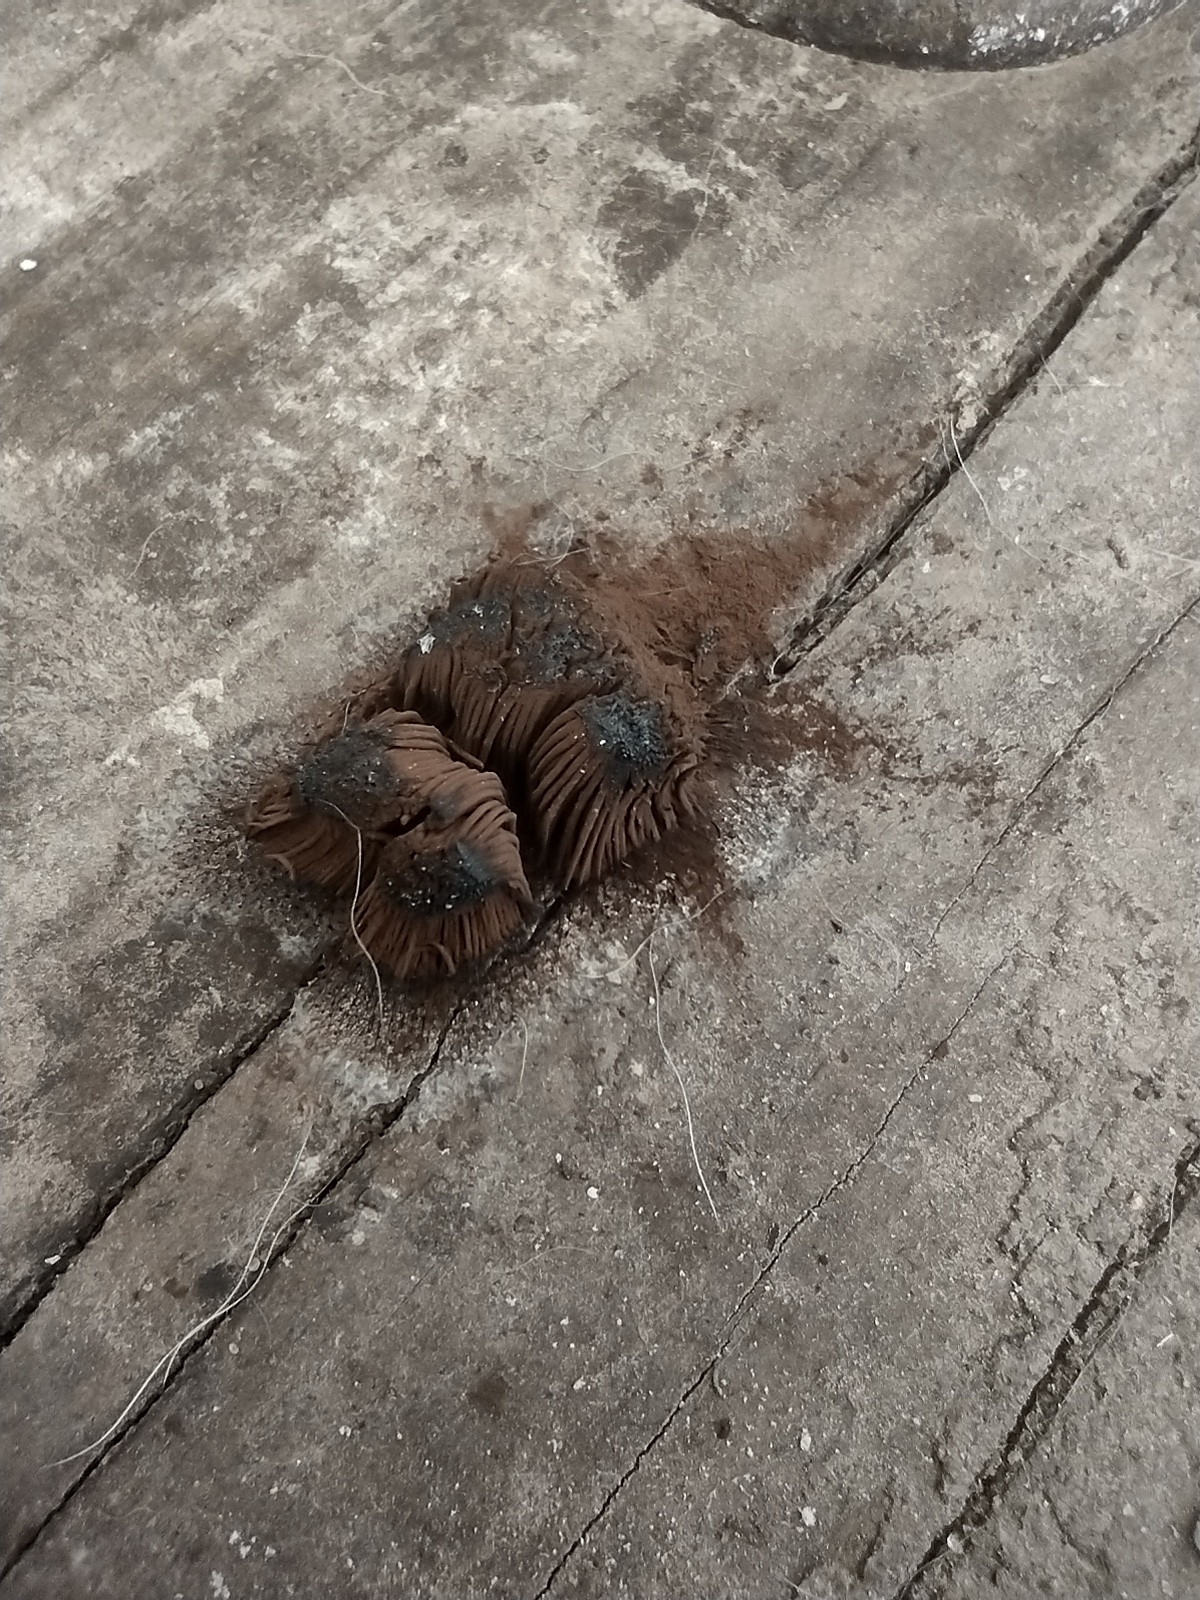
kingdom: Protozoa
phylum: Mycetozoa
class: Myxomycetes
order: Stemonitidales
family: Stemonitidaceae
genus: Stemonitis
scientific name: Stemonitis splendens
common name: Chocolate tube slime
